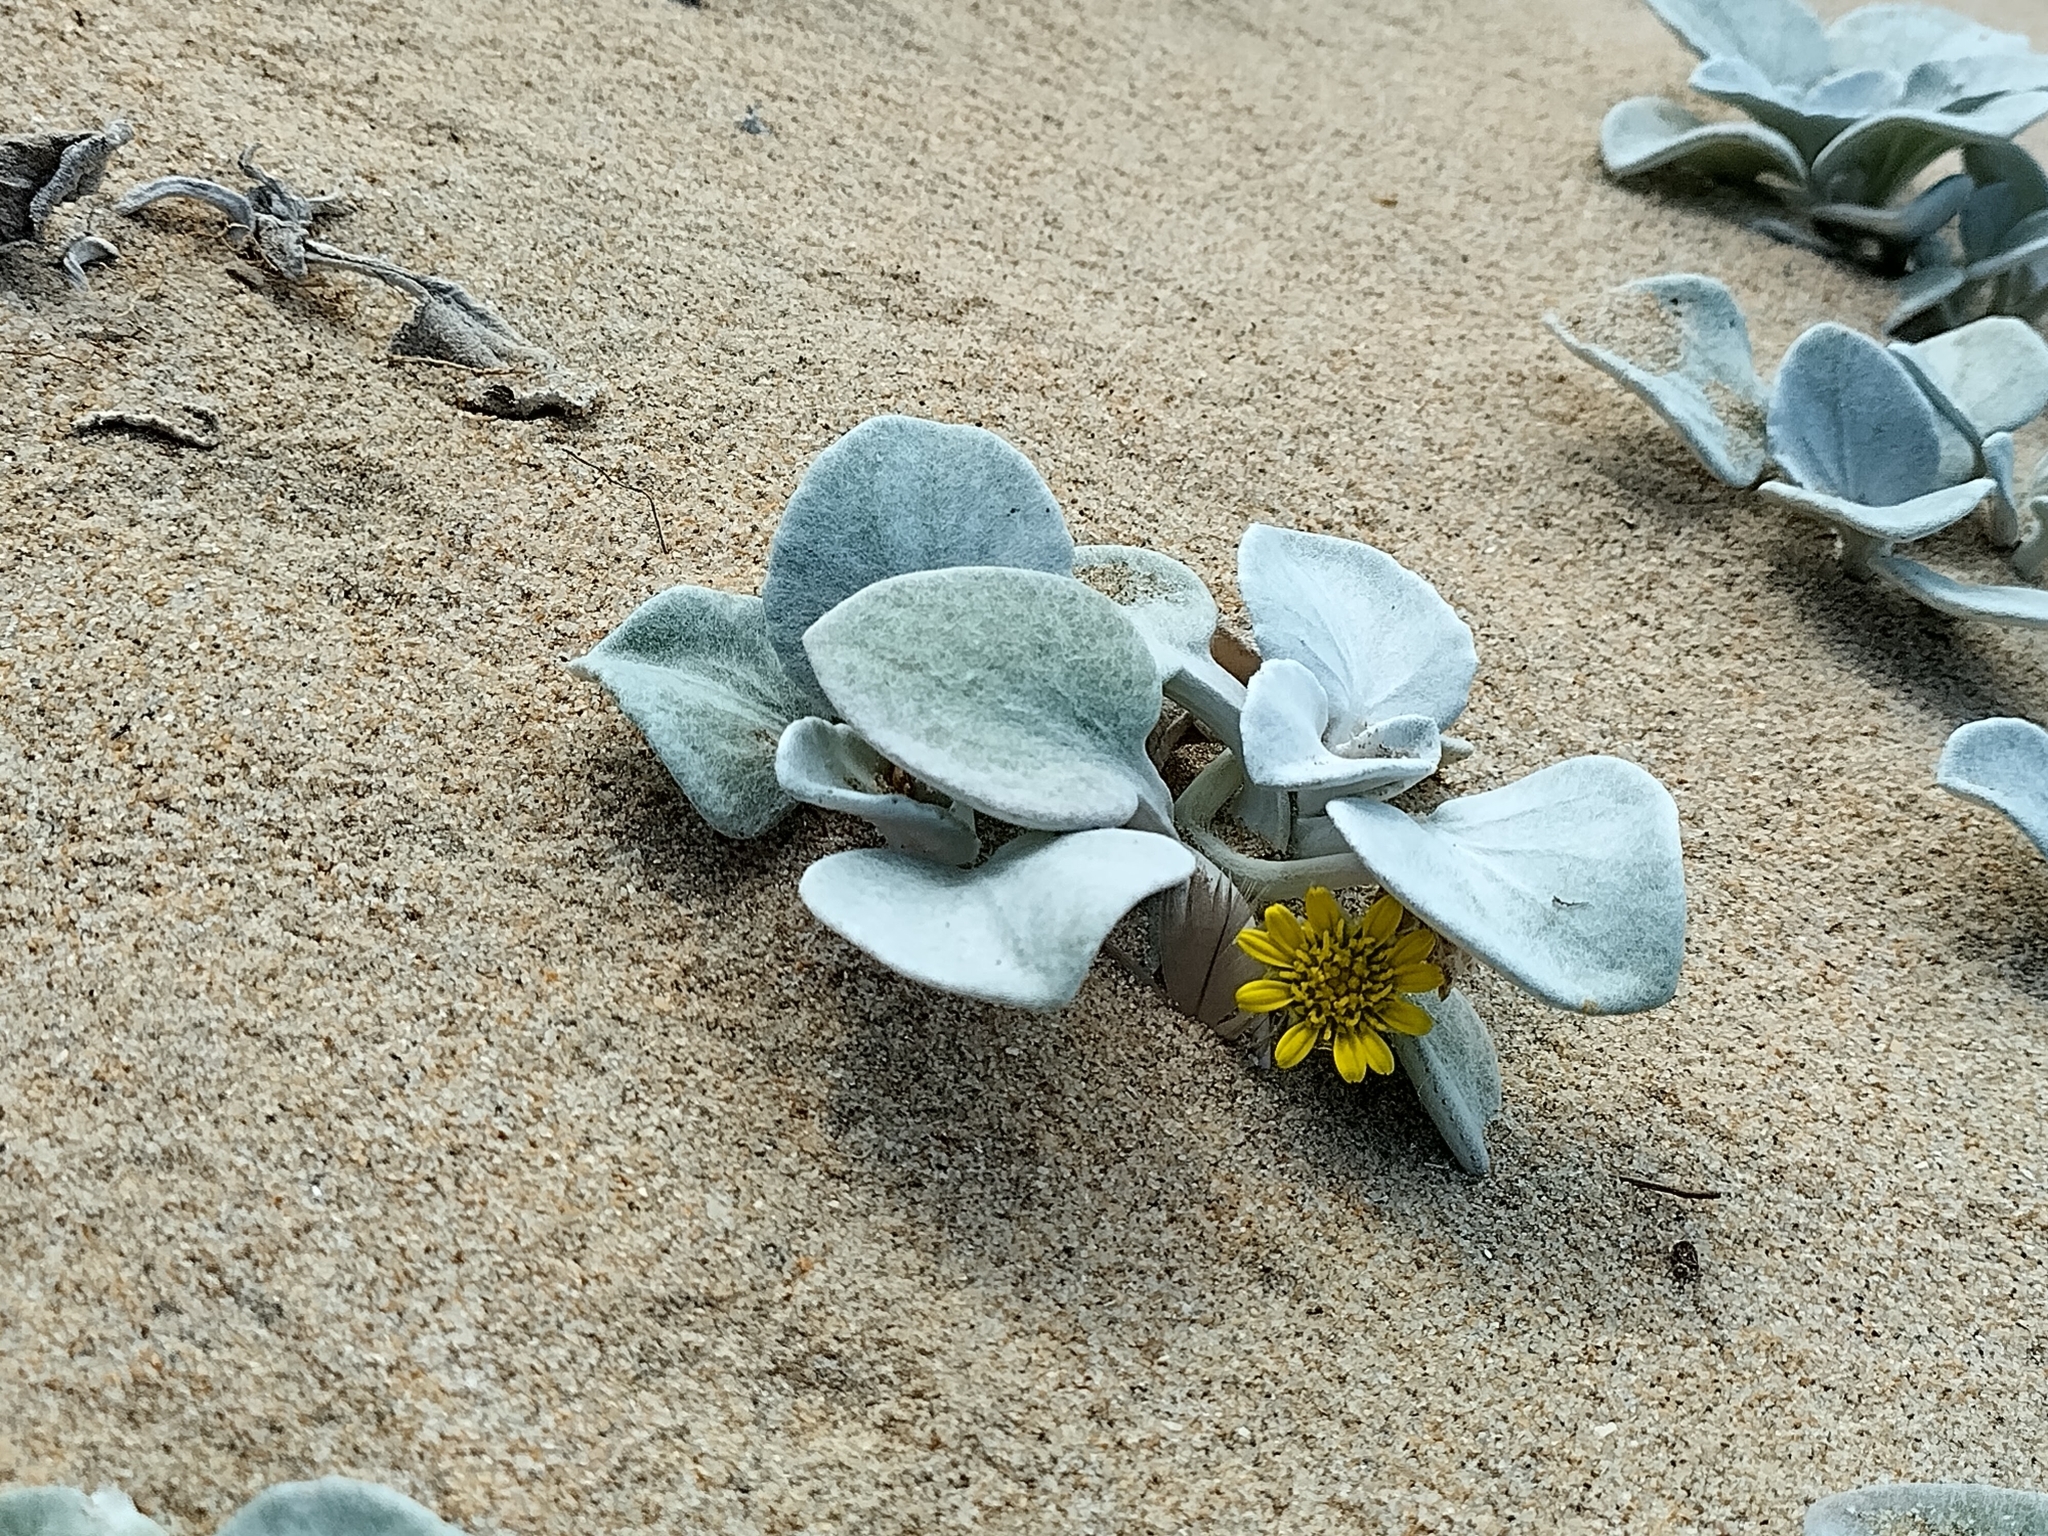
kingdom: Plantae
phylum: Tracheophyta
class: Magnoliopsida
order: Asterales
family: Asteraceae
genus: Arctotheca
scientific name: Arctotheca populifolia
